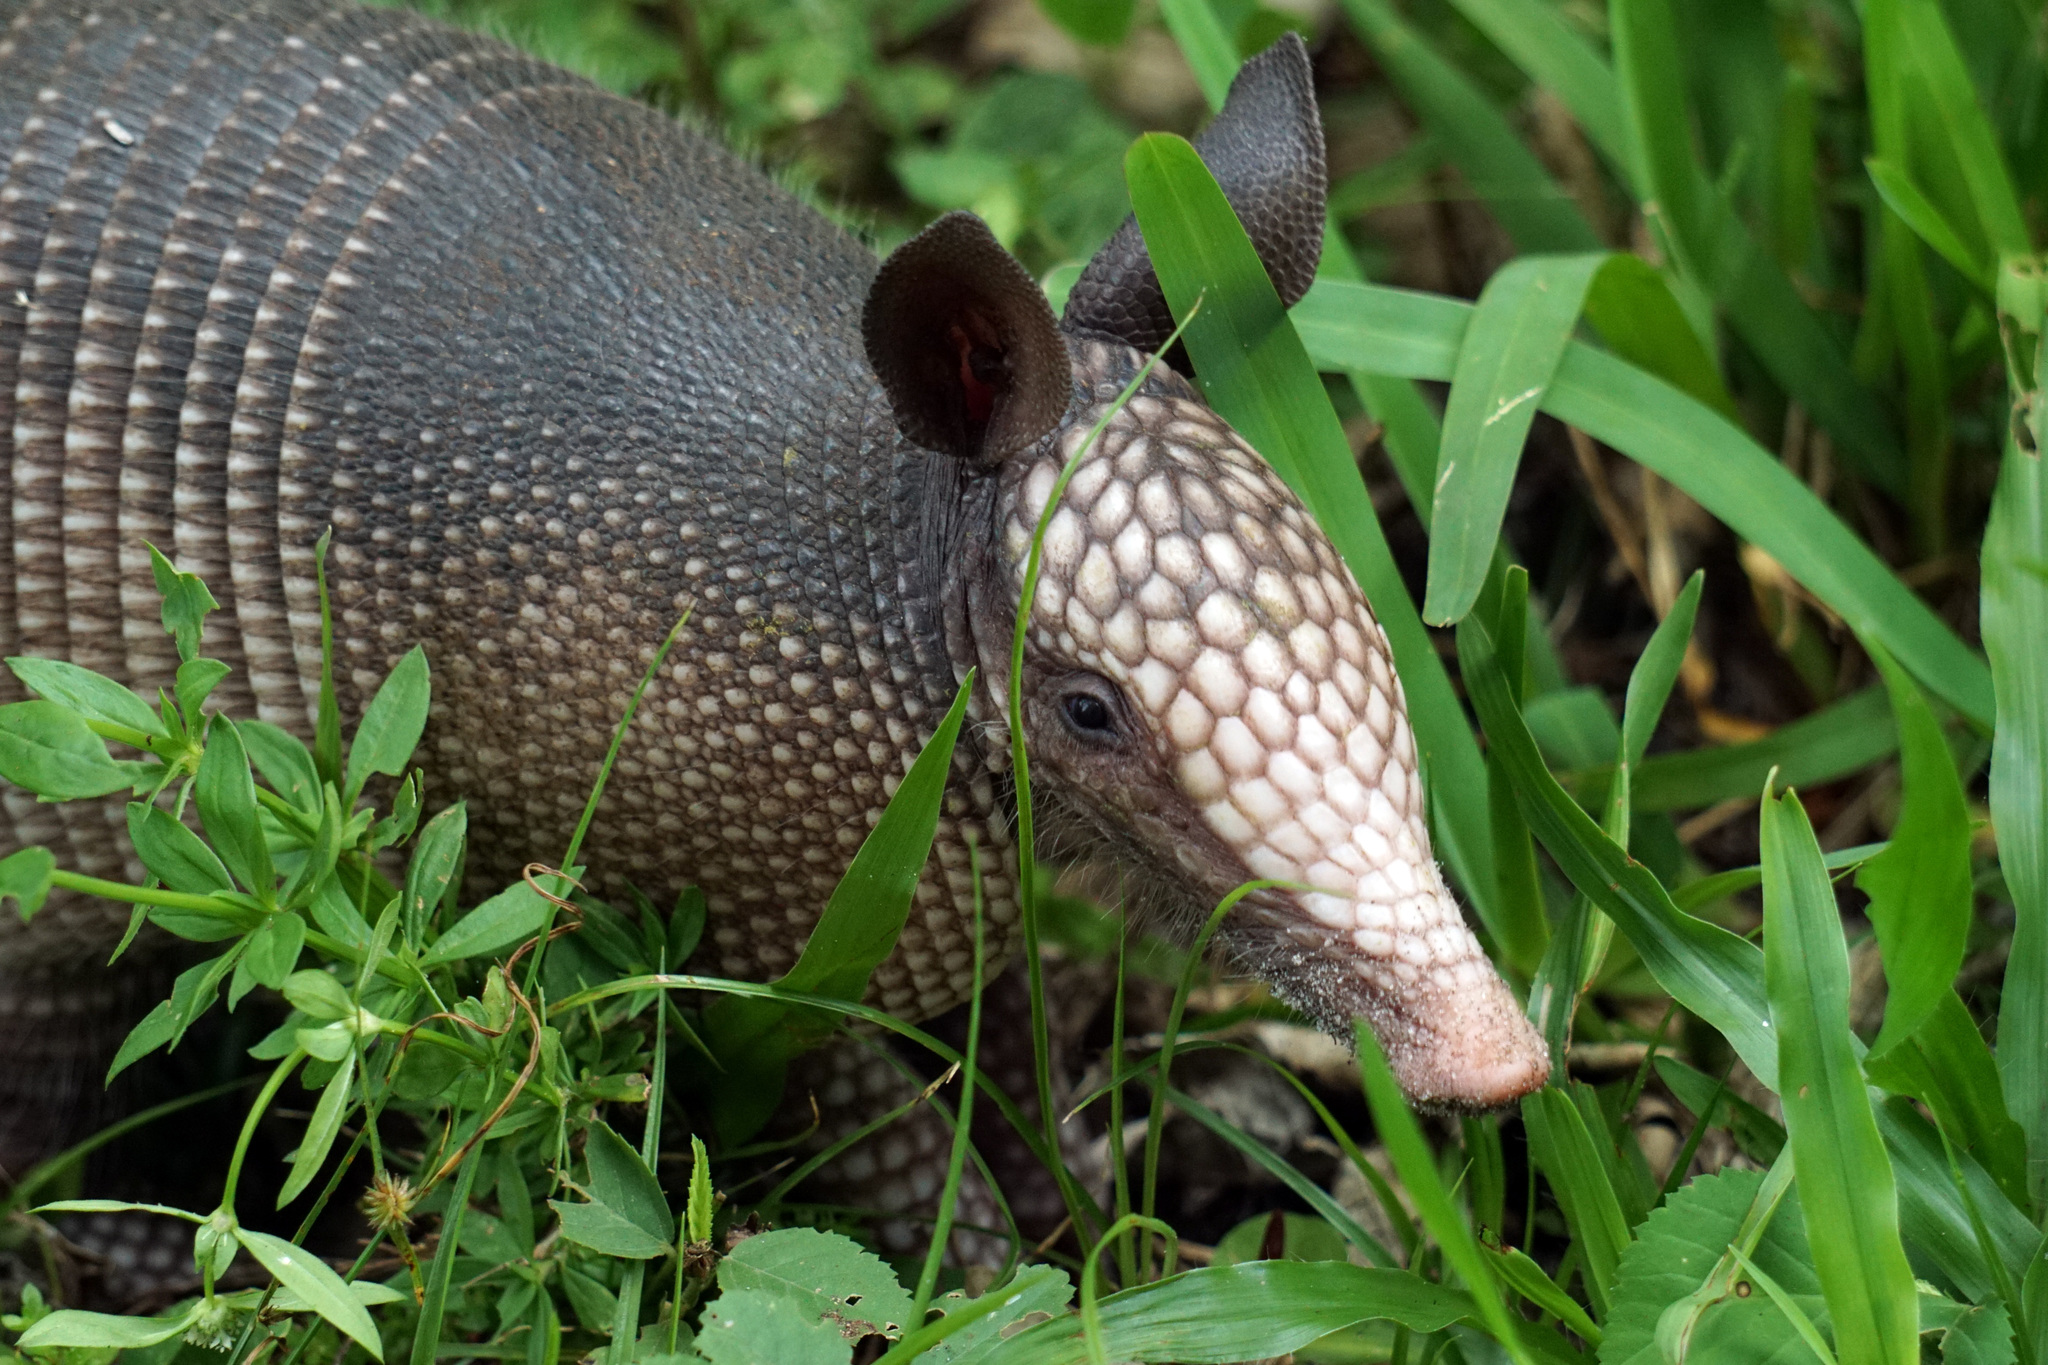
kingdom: Animalia
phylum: Chordata
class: Mammalia
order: Cingulata
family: Dasypodidae
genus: Dasypus
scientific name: Dasypus novemcinctus
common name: Nine-banded armadillo
